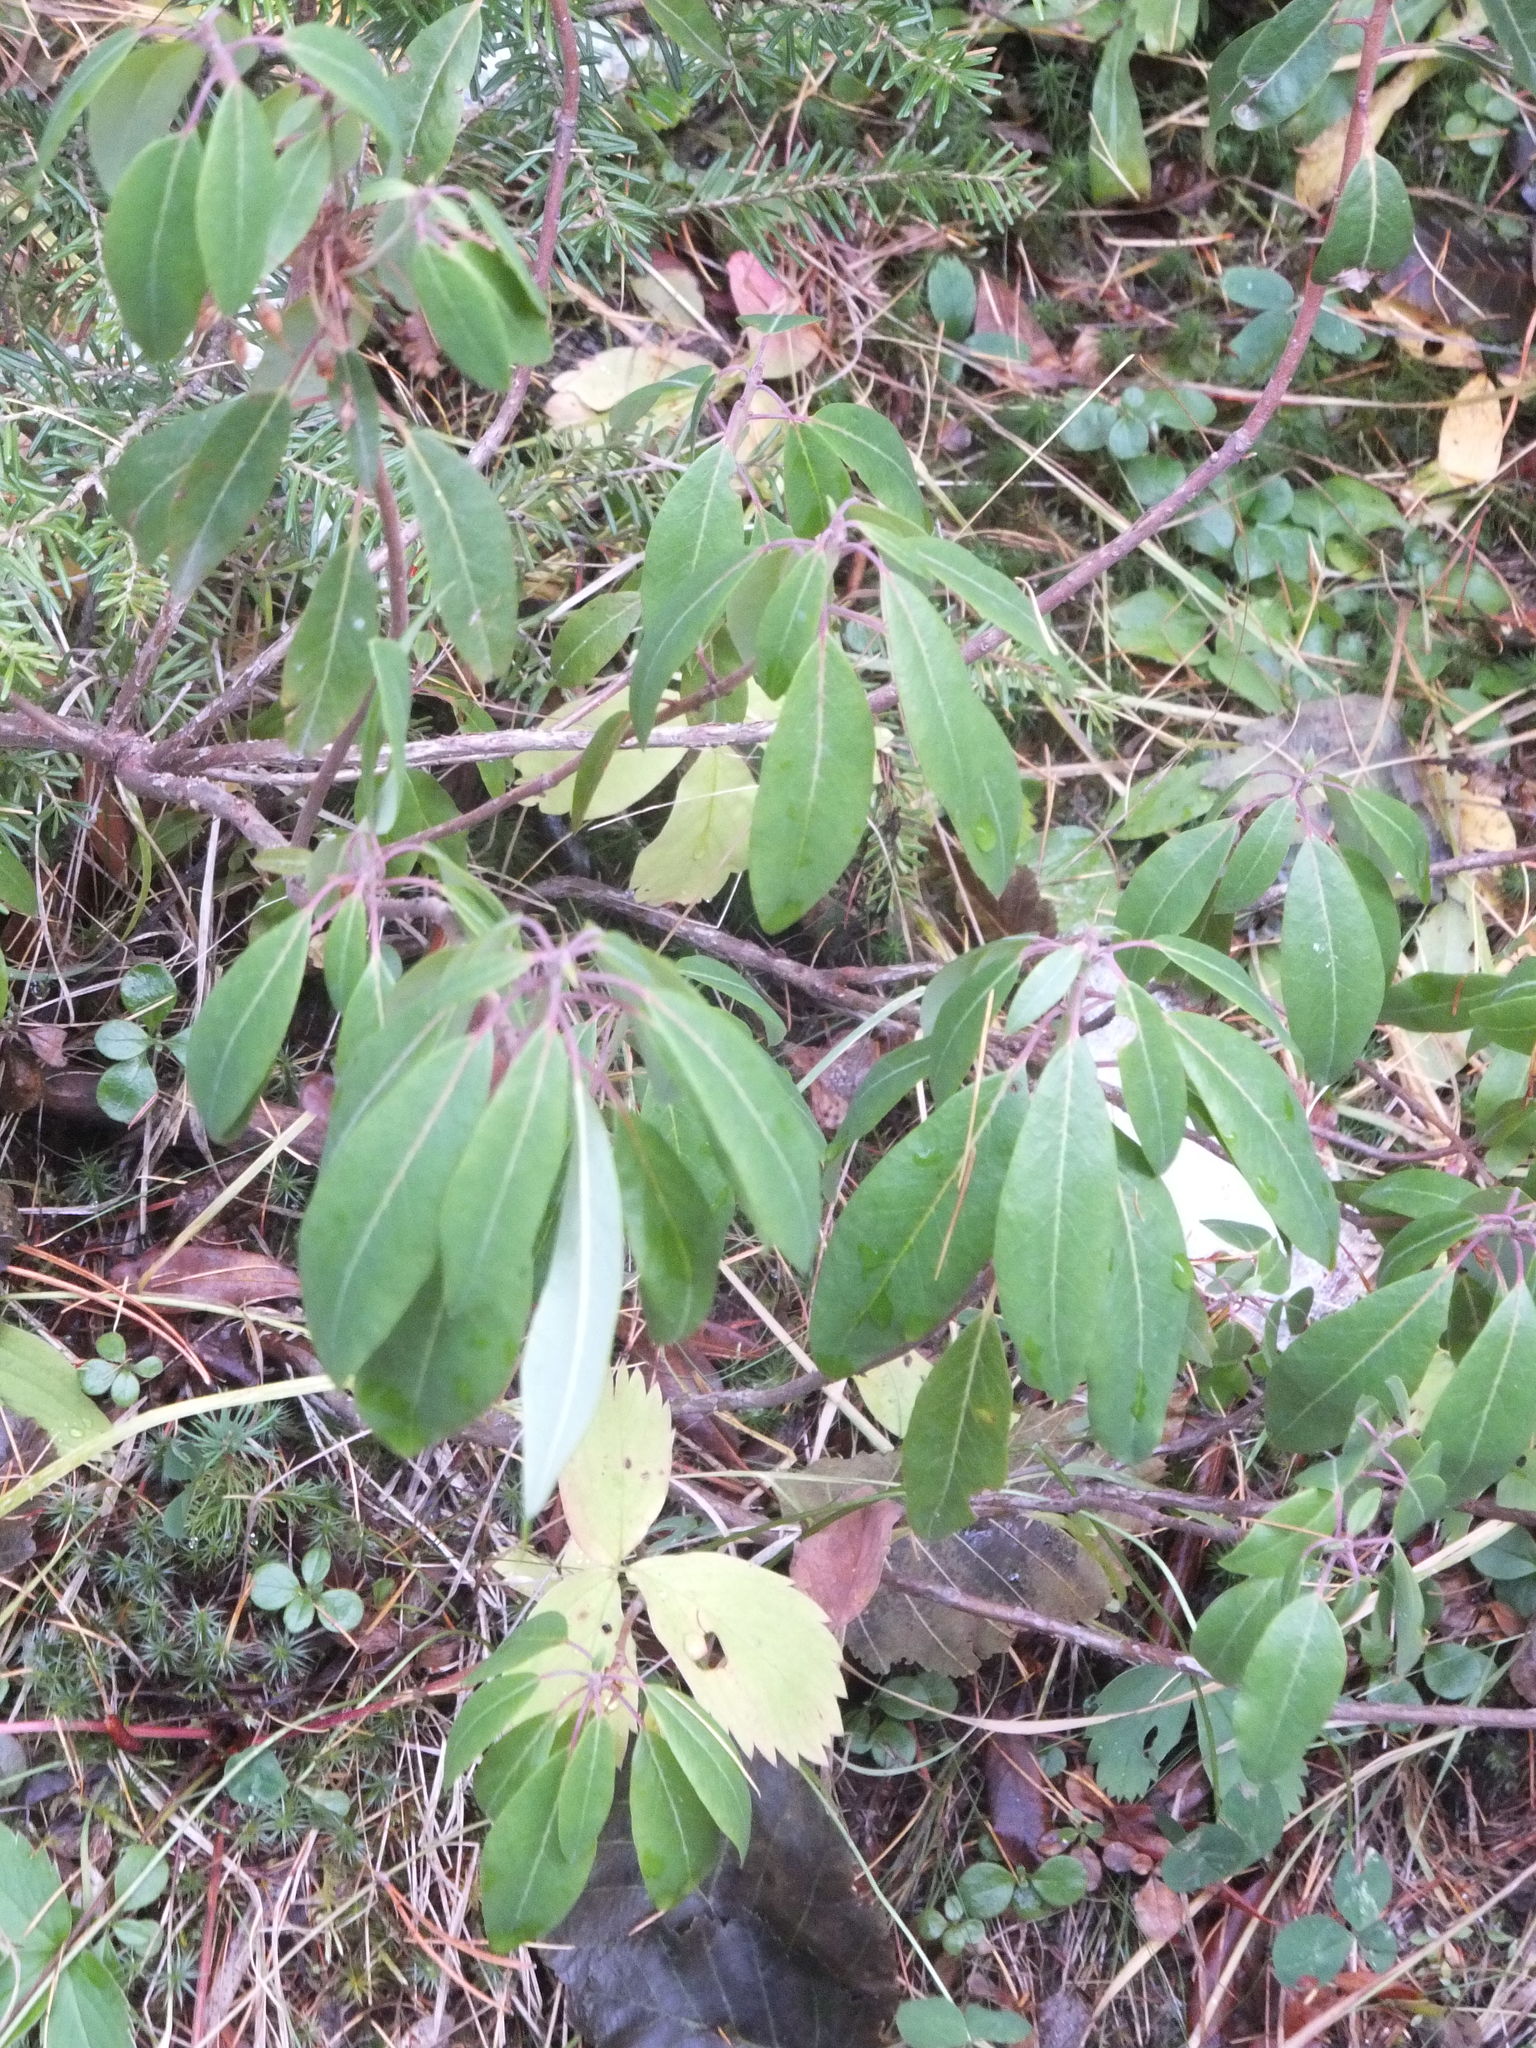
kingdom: Plantae
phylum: Tracheophyta
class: Magnoliopsida
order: Ericales
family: Ericaceae
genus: Rhododendron
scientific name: Rhododendron columbianum
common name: Western labrador tea
